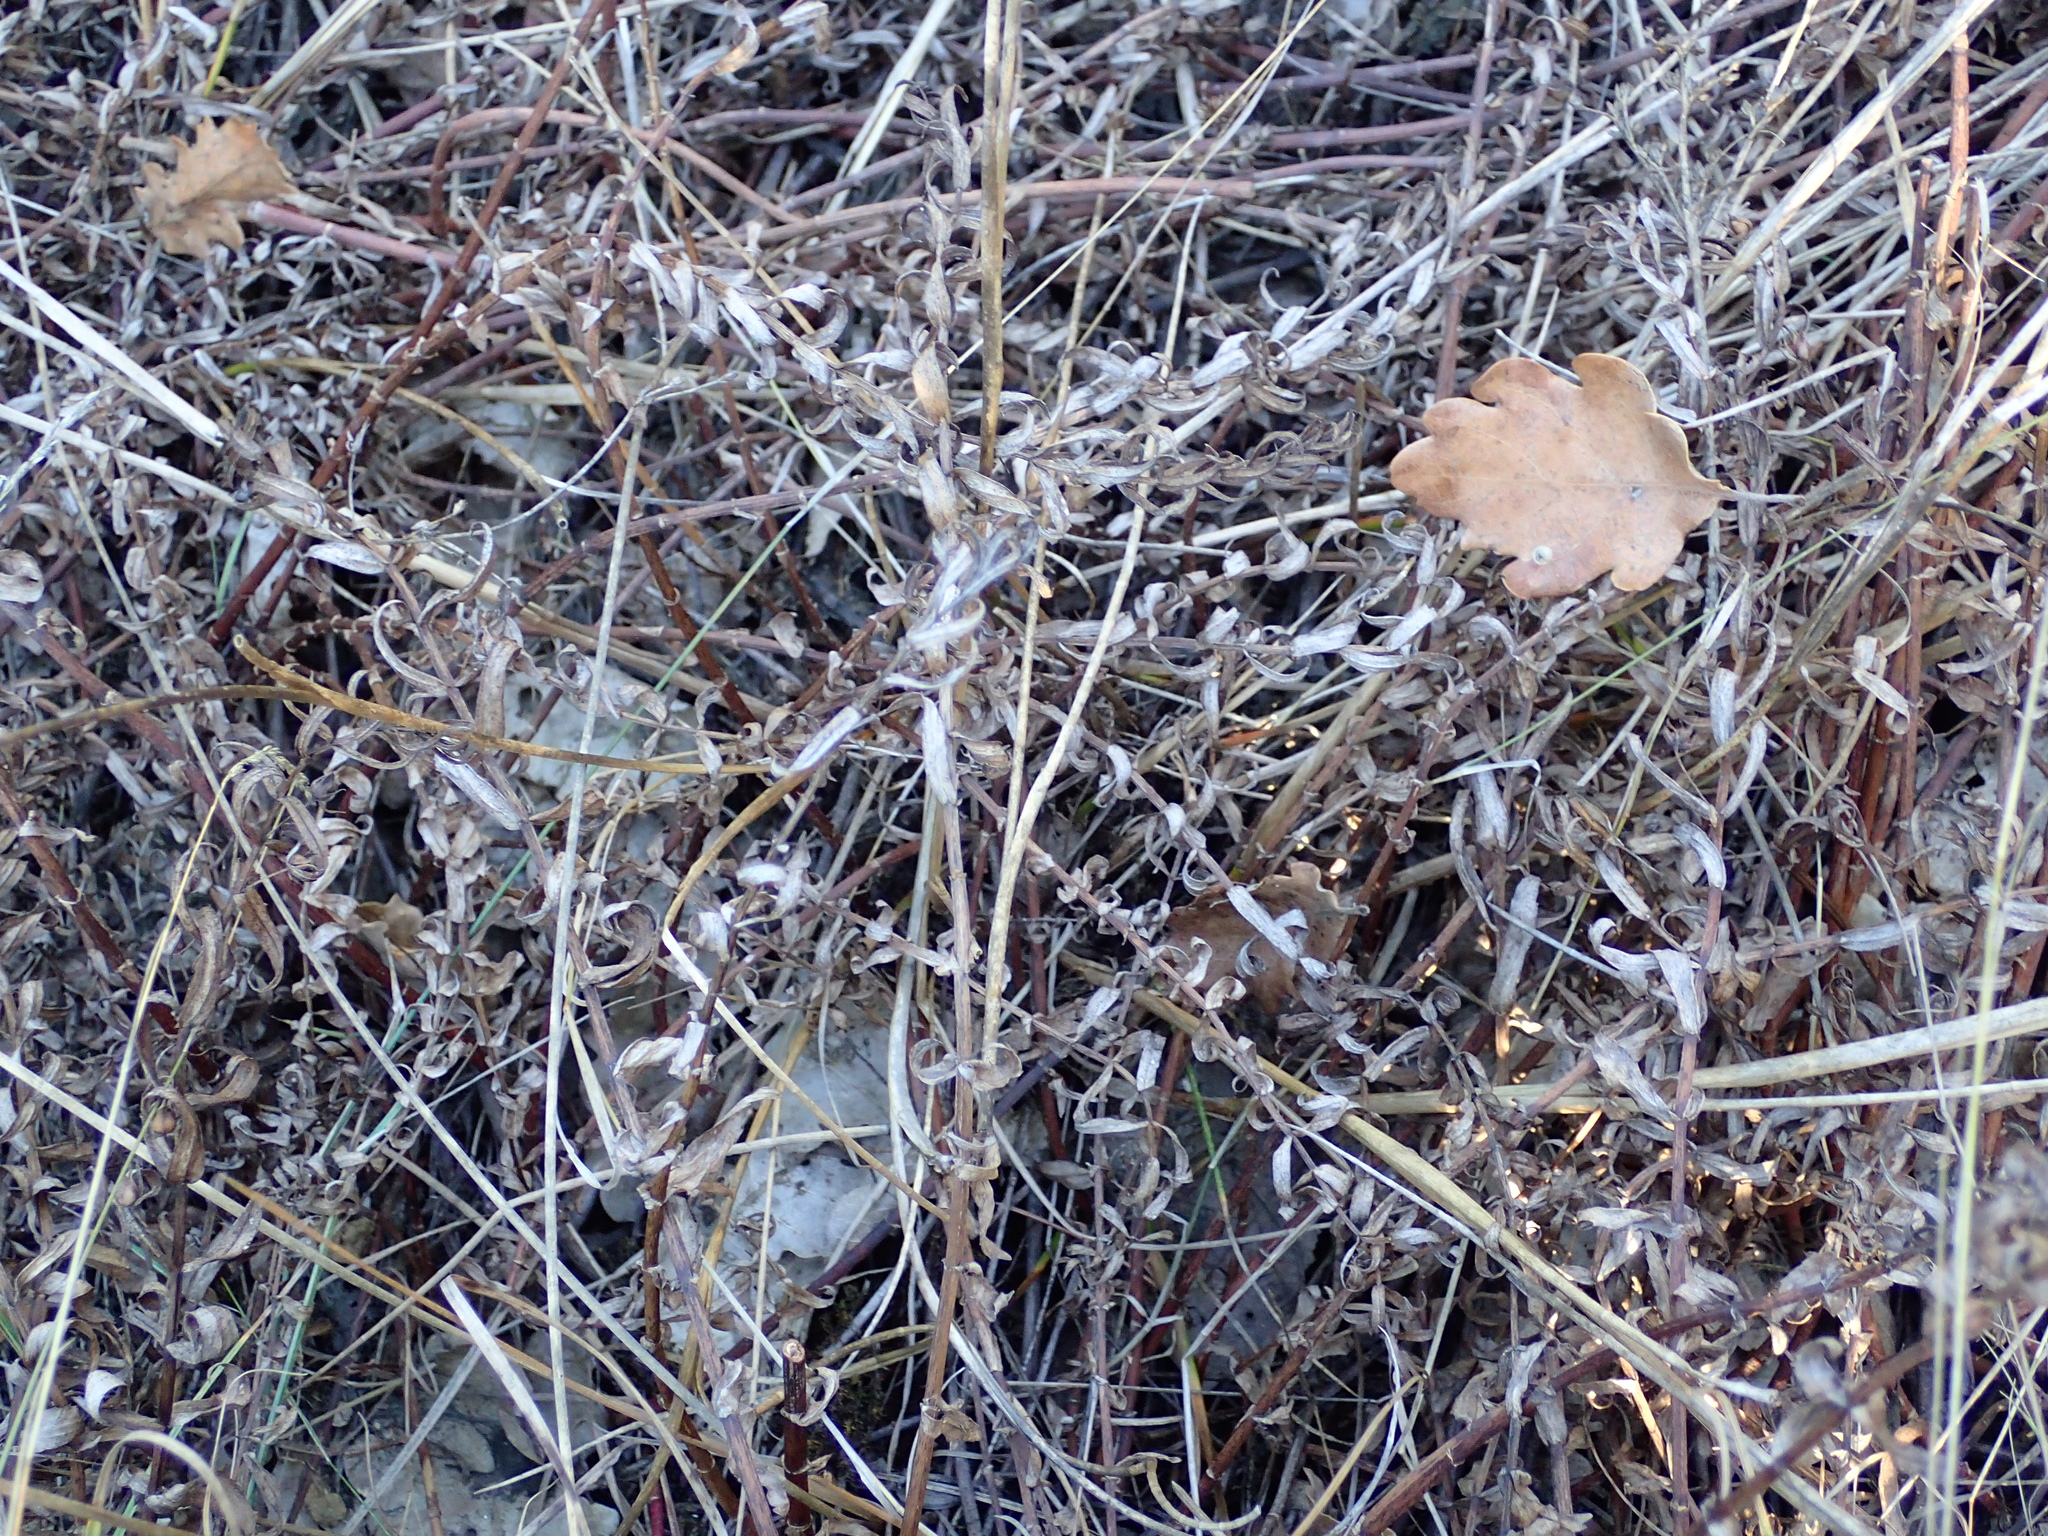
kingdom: Plantae
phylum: Tracheophyta
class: Magnoliopsida
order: Lamiales
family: Plantaginaceae
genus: Gratiola
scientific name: Gratiola officinalis
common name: Gratiola
